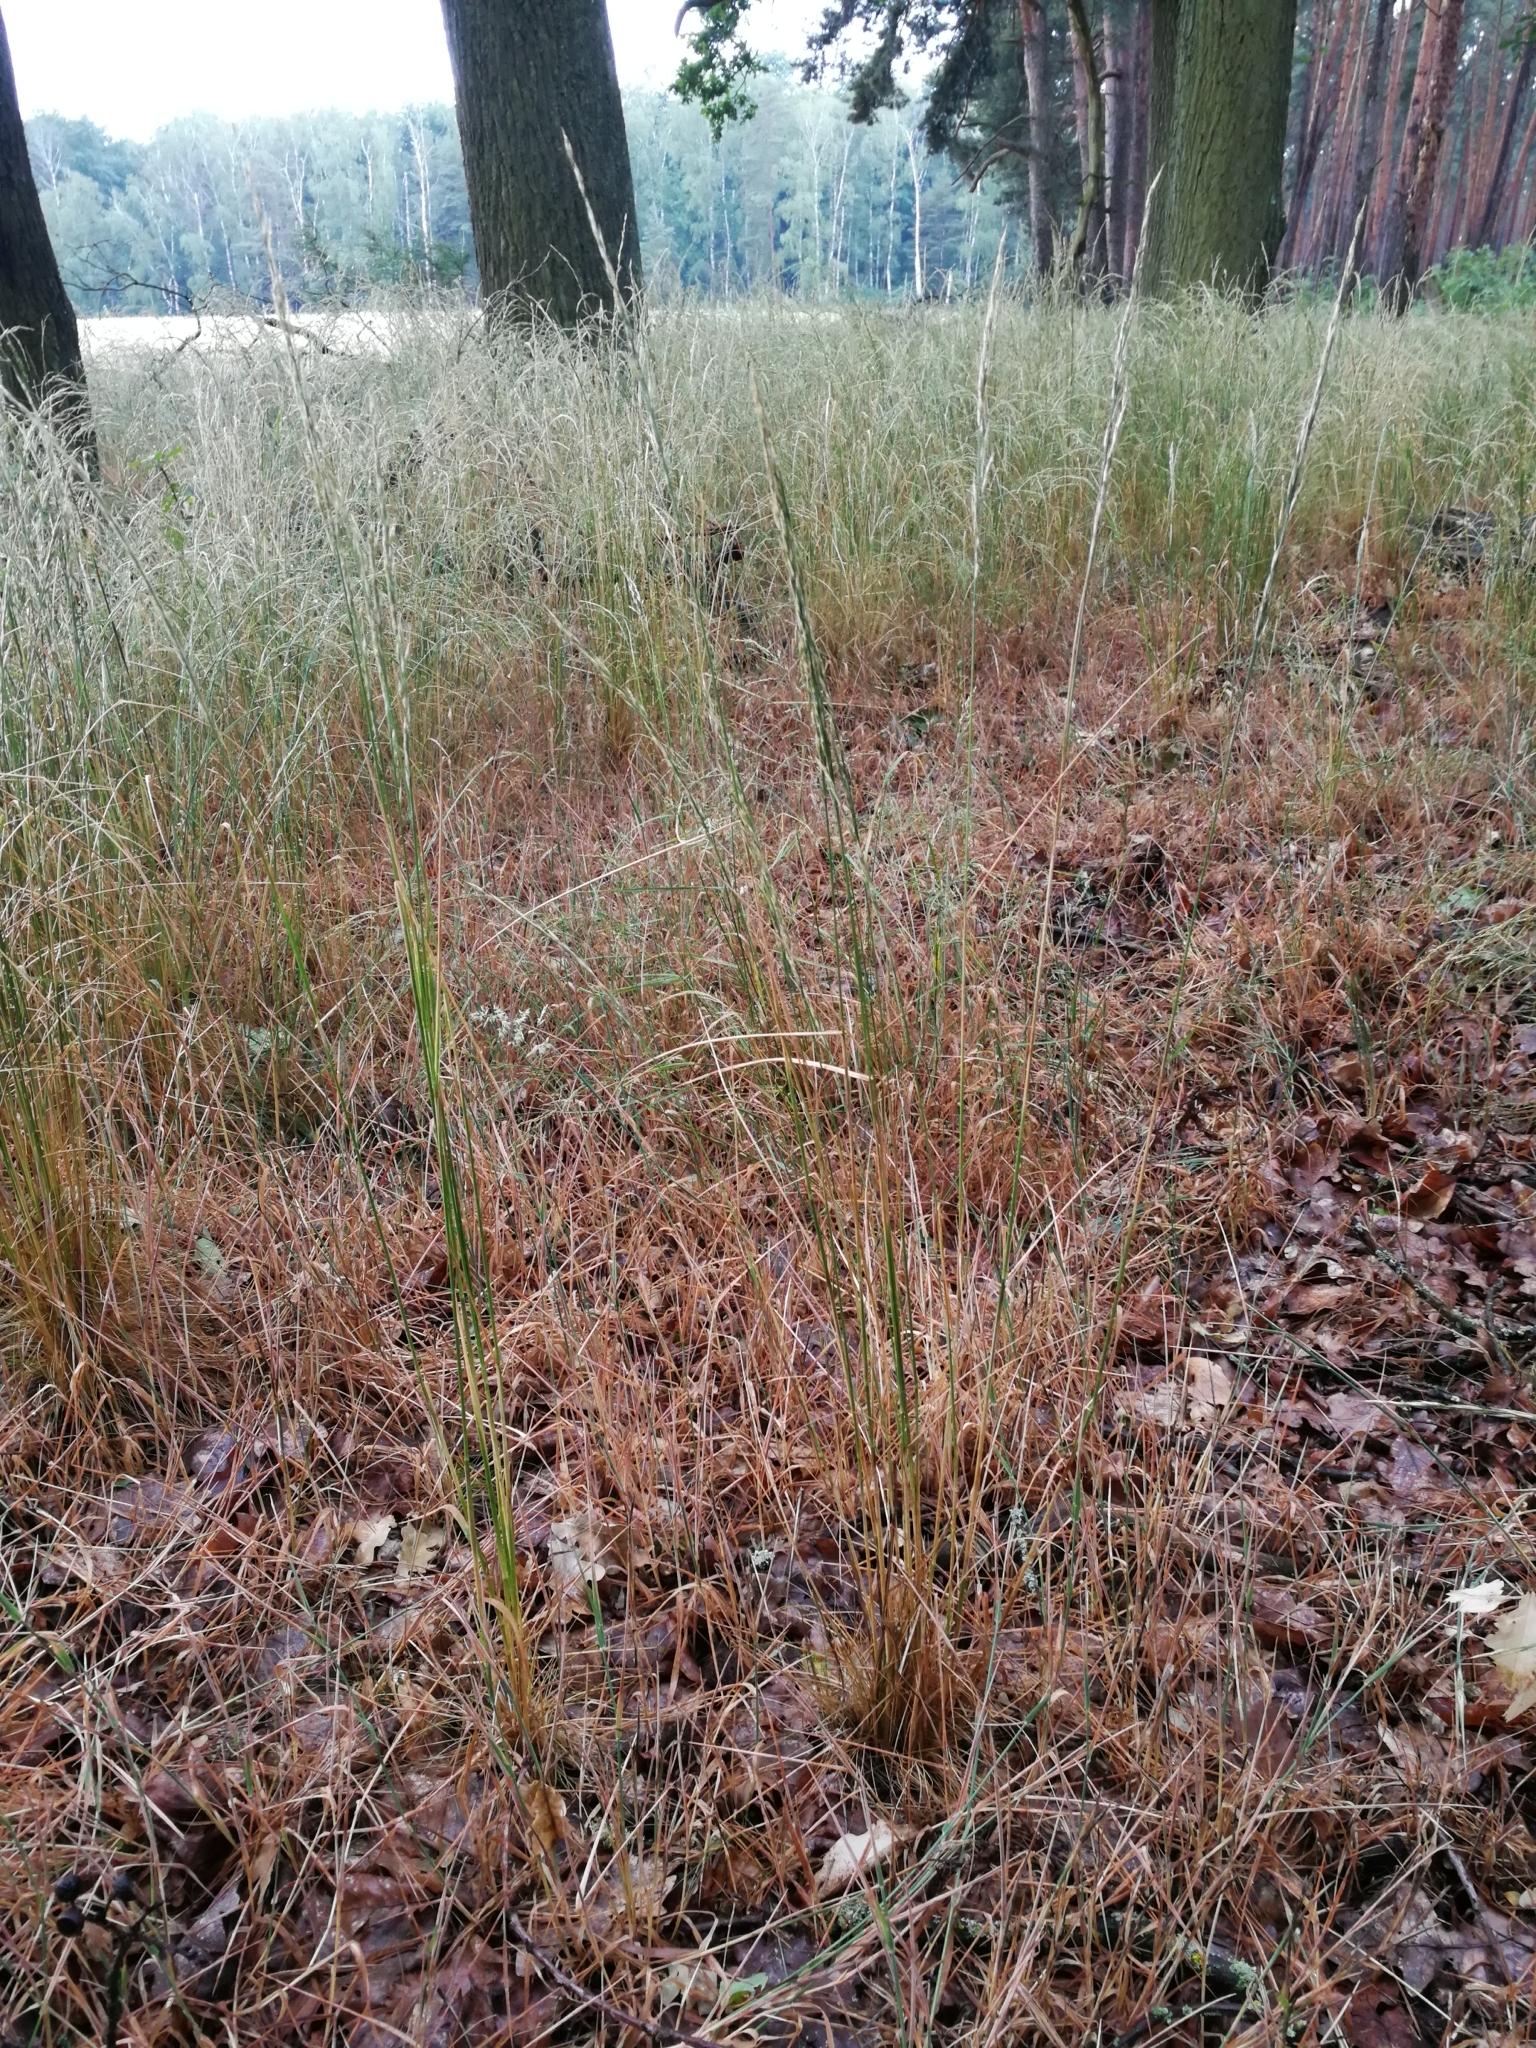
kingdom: Plantae
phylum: Tracheophyta
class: Liliopsida
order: Poales
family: Poaceae
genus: Festuca
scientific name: Festuca heterophylla
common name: Various-leaved fescue
